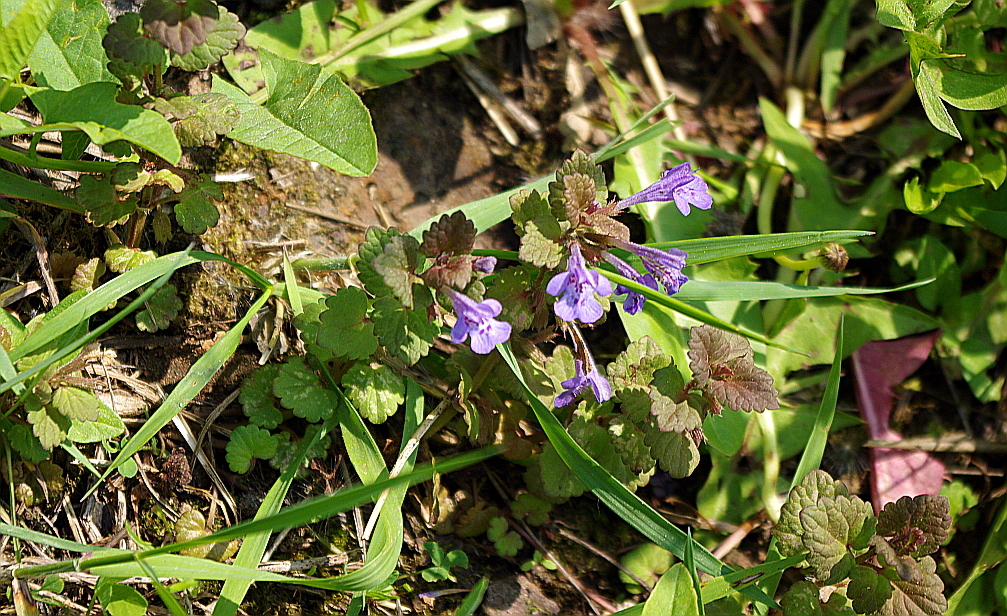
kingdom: Plantae
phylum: Tracheophyta
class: Magnoliopsida
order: Lamiales
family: Lamiaceae
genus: Glechoma
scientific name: Glechoma hederacea
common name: Ground ivy
